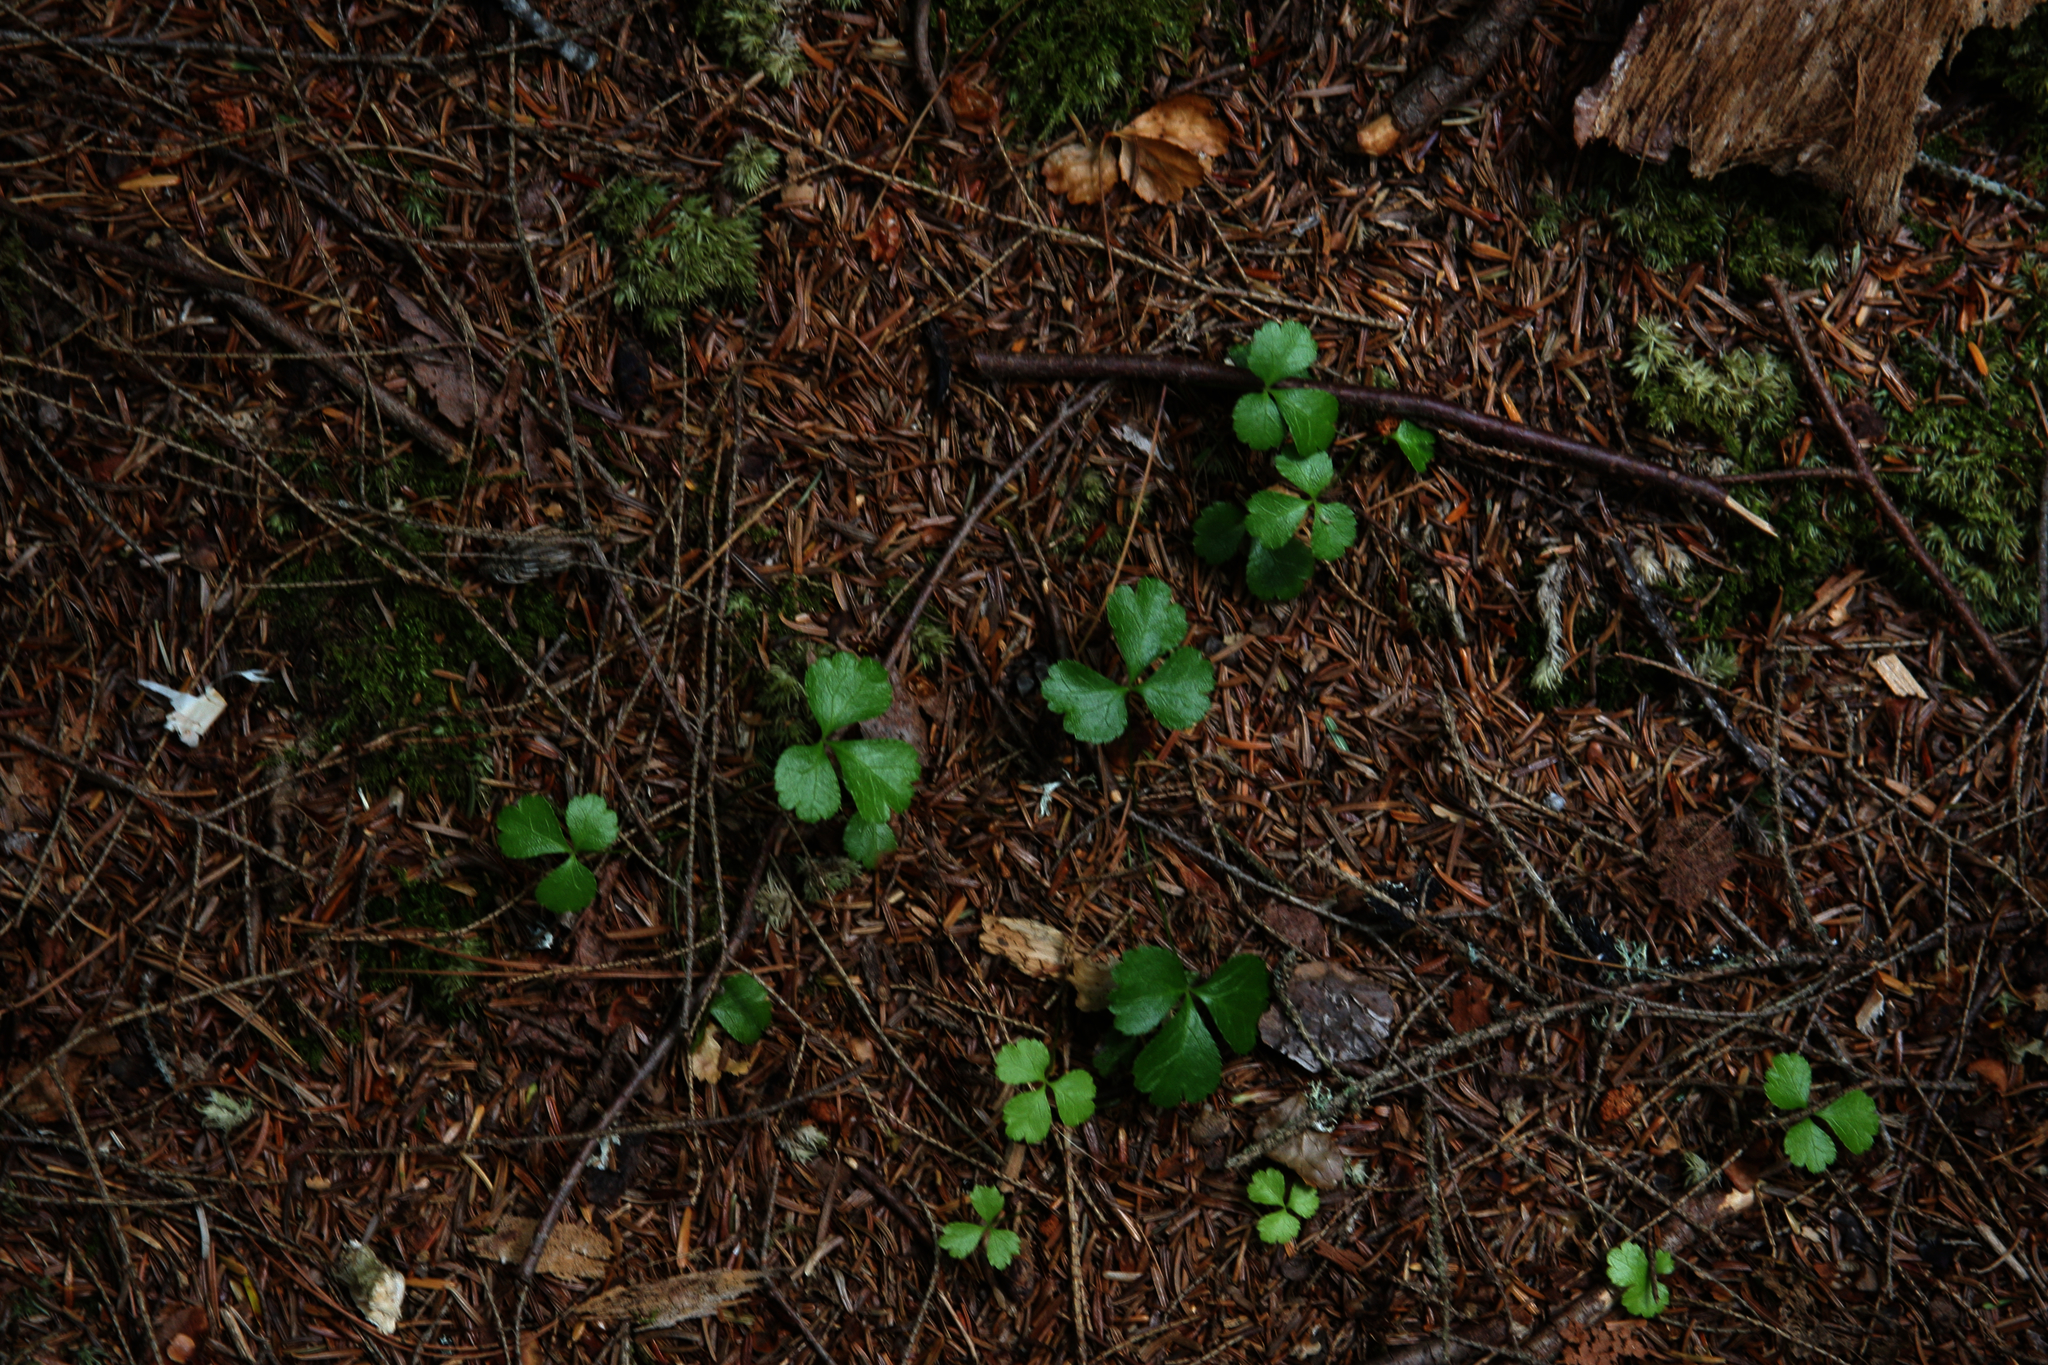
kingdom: Plantae
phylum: Tracheophyta
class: Magnoliopsida
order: Ranunculales
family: Ranunculaceae
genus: Coptis
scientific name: Coptis trifolia
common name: Canker-root
